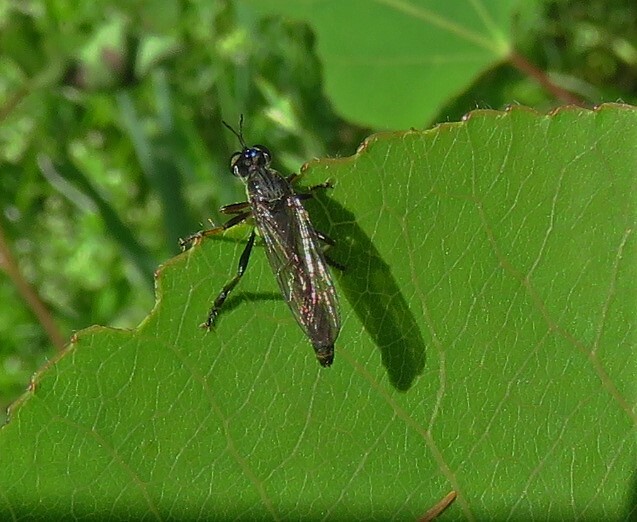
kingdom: Animalia
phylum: Arthropoda
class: Insecta
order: Diptera
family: Asilidae
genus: Dioctria
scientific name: Dioctria hyalipennis
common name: Stripe-legged robberfly
